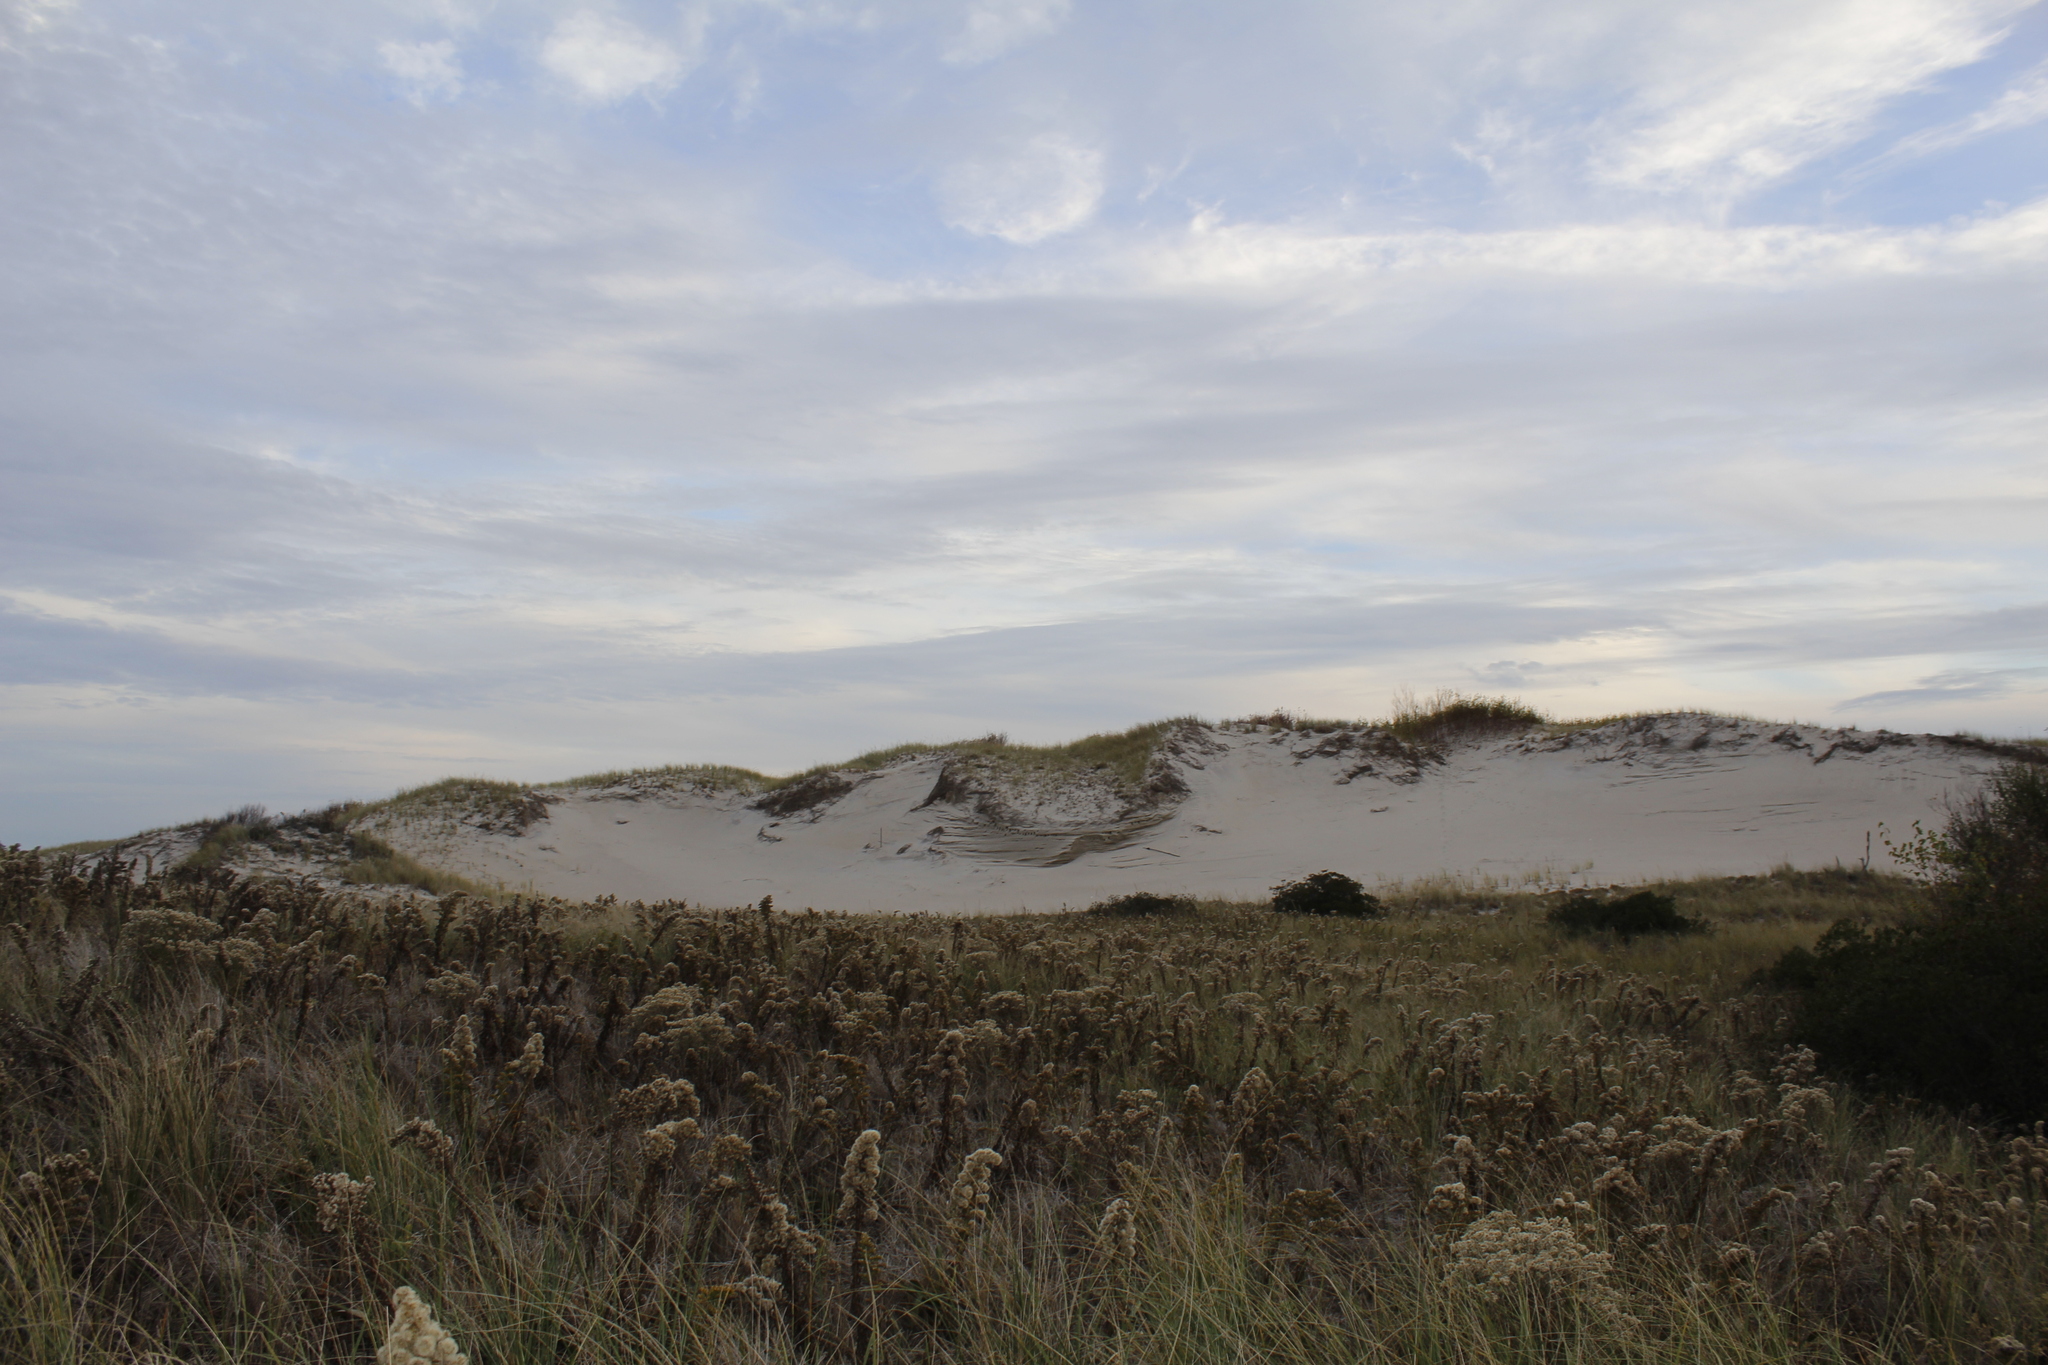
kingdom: Plantae
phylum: Tracheophyta
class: Magnoliopsida
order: Asterales
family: Asteraceae
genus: Solidago
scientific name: Solidago sempervirens
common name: Salt-marsh goldenrod
